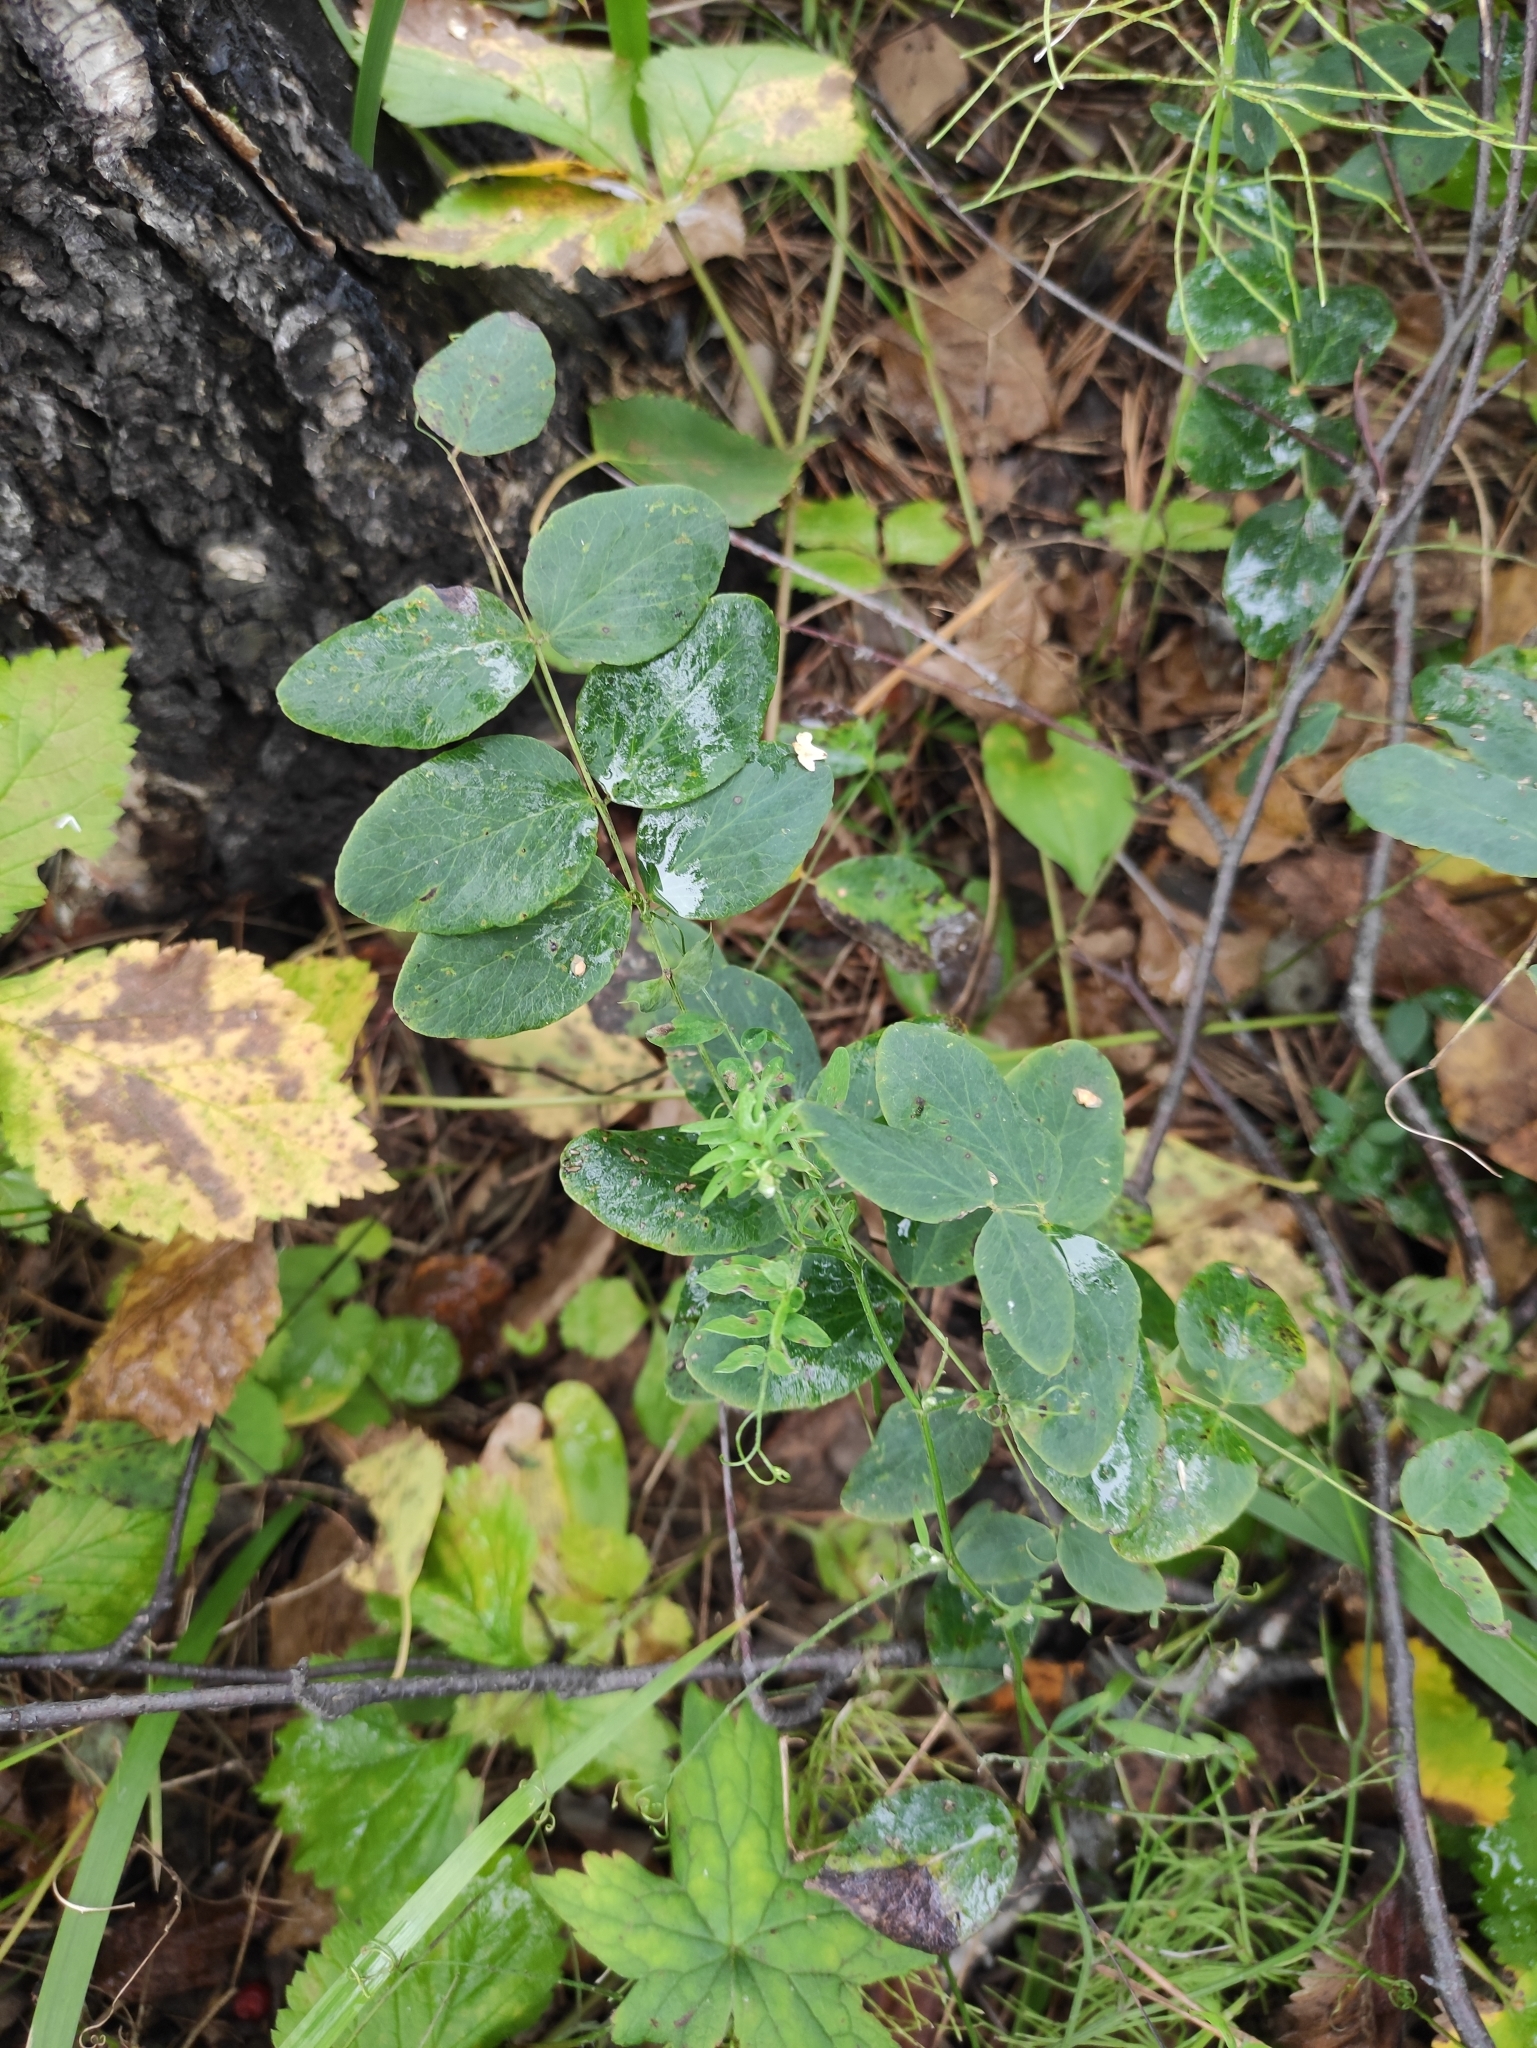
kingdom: Plantae
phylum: Tracheophyta
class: Magnoliopsida
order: Fabales
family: Fabaceae
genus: Lathyrus
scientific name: Lathyrus humilis
